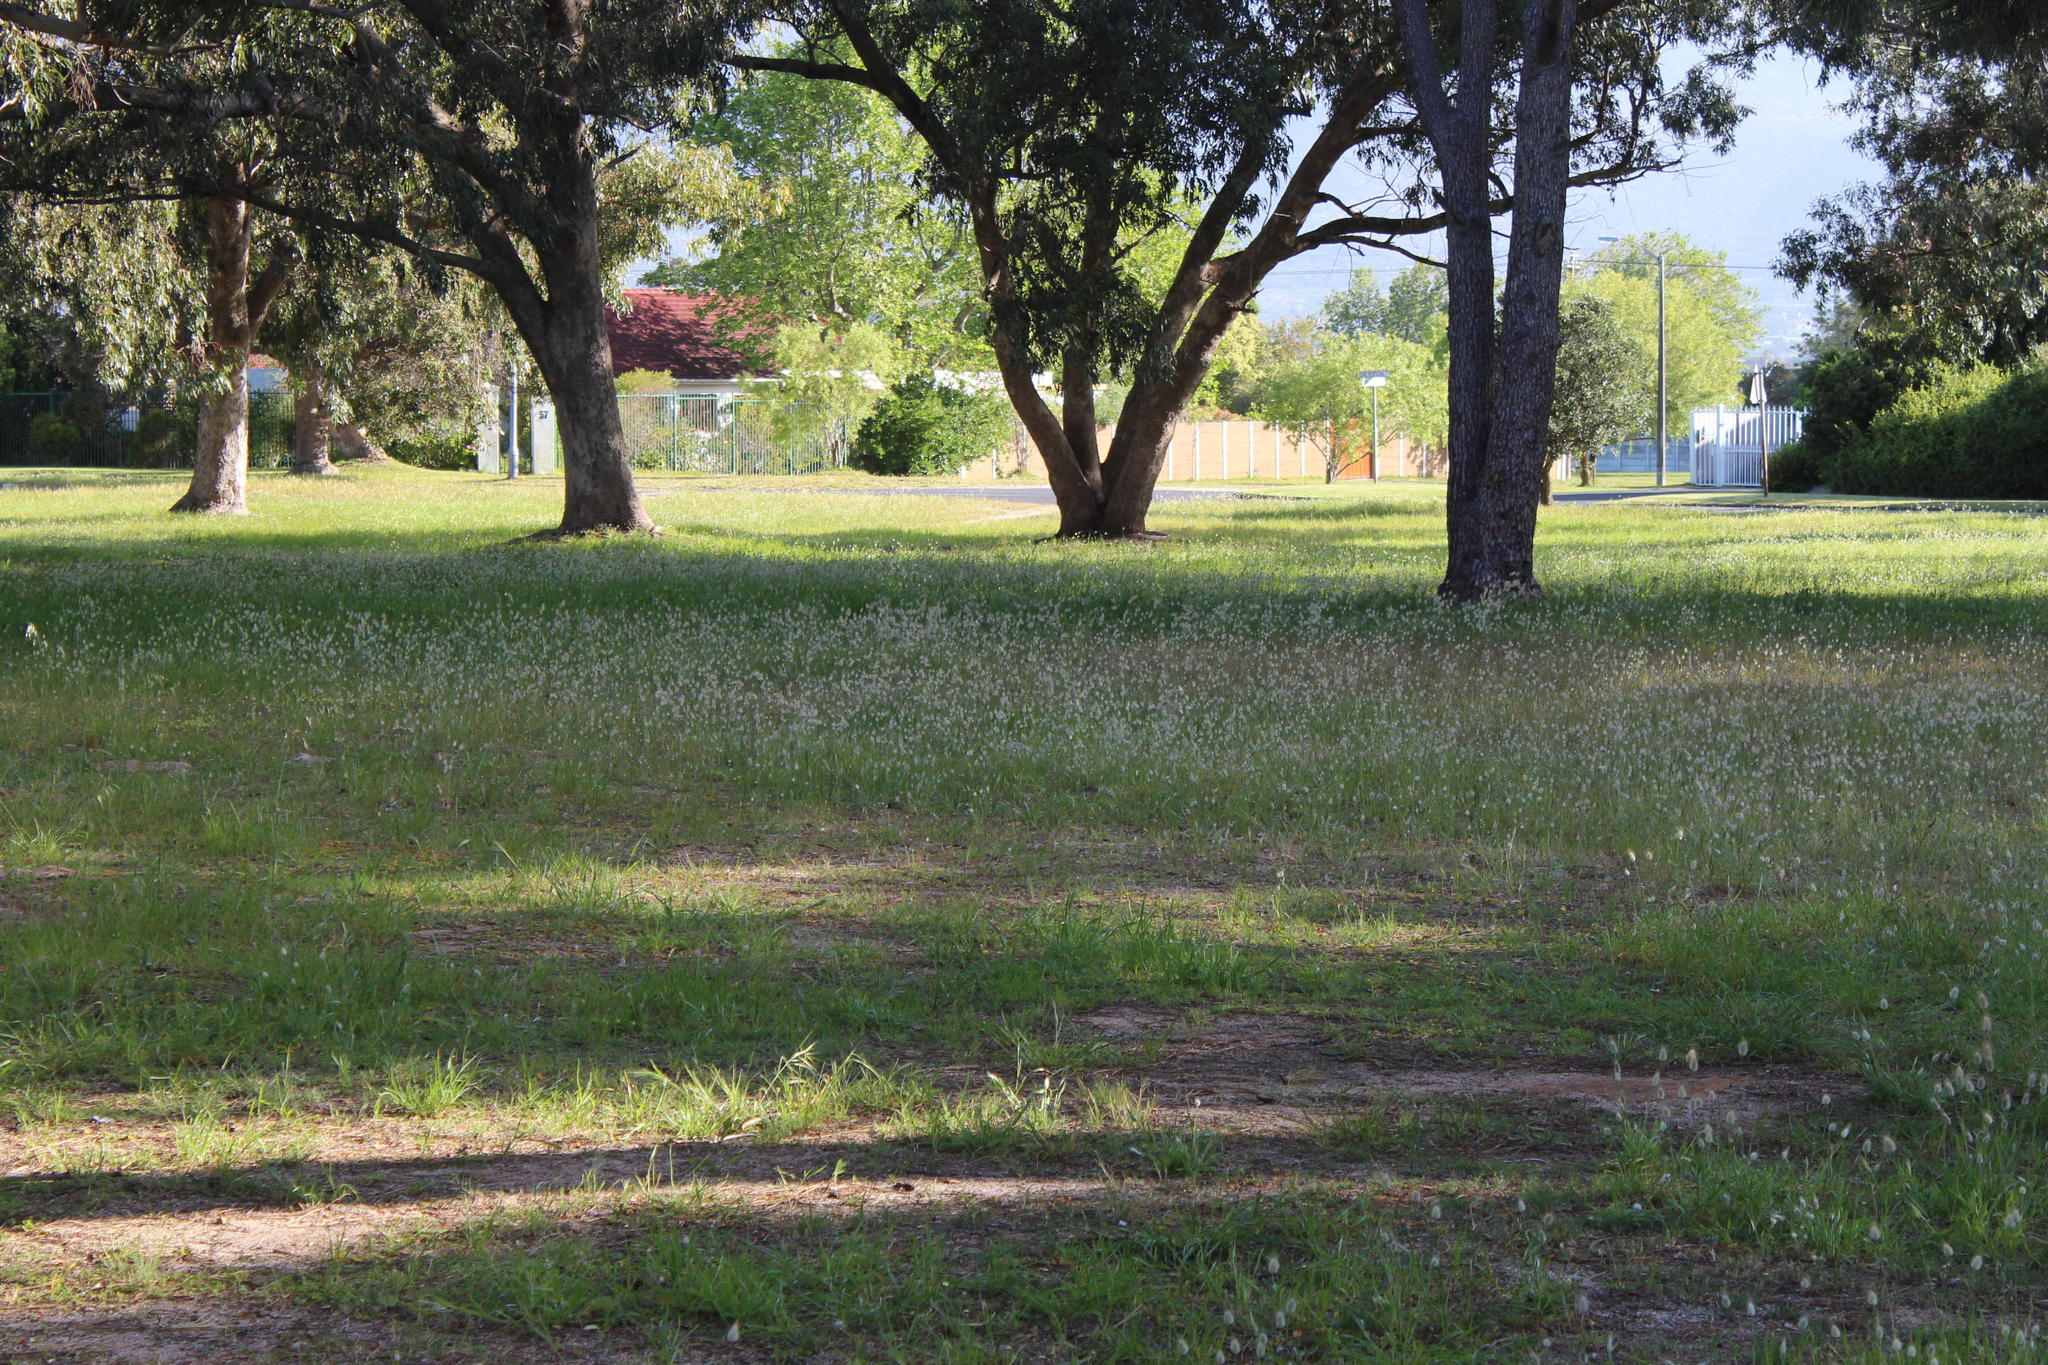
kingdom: Plantae
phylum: Tracheophyta
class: Liliopsida
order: Poales
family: Poaceae
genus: Lagurus
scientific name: Lagurus ovatus
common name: Hare's-tail
